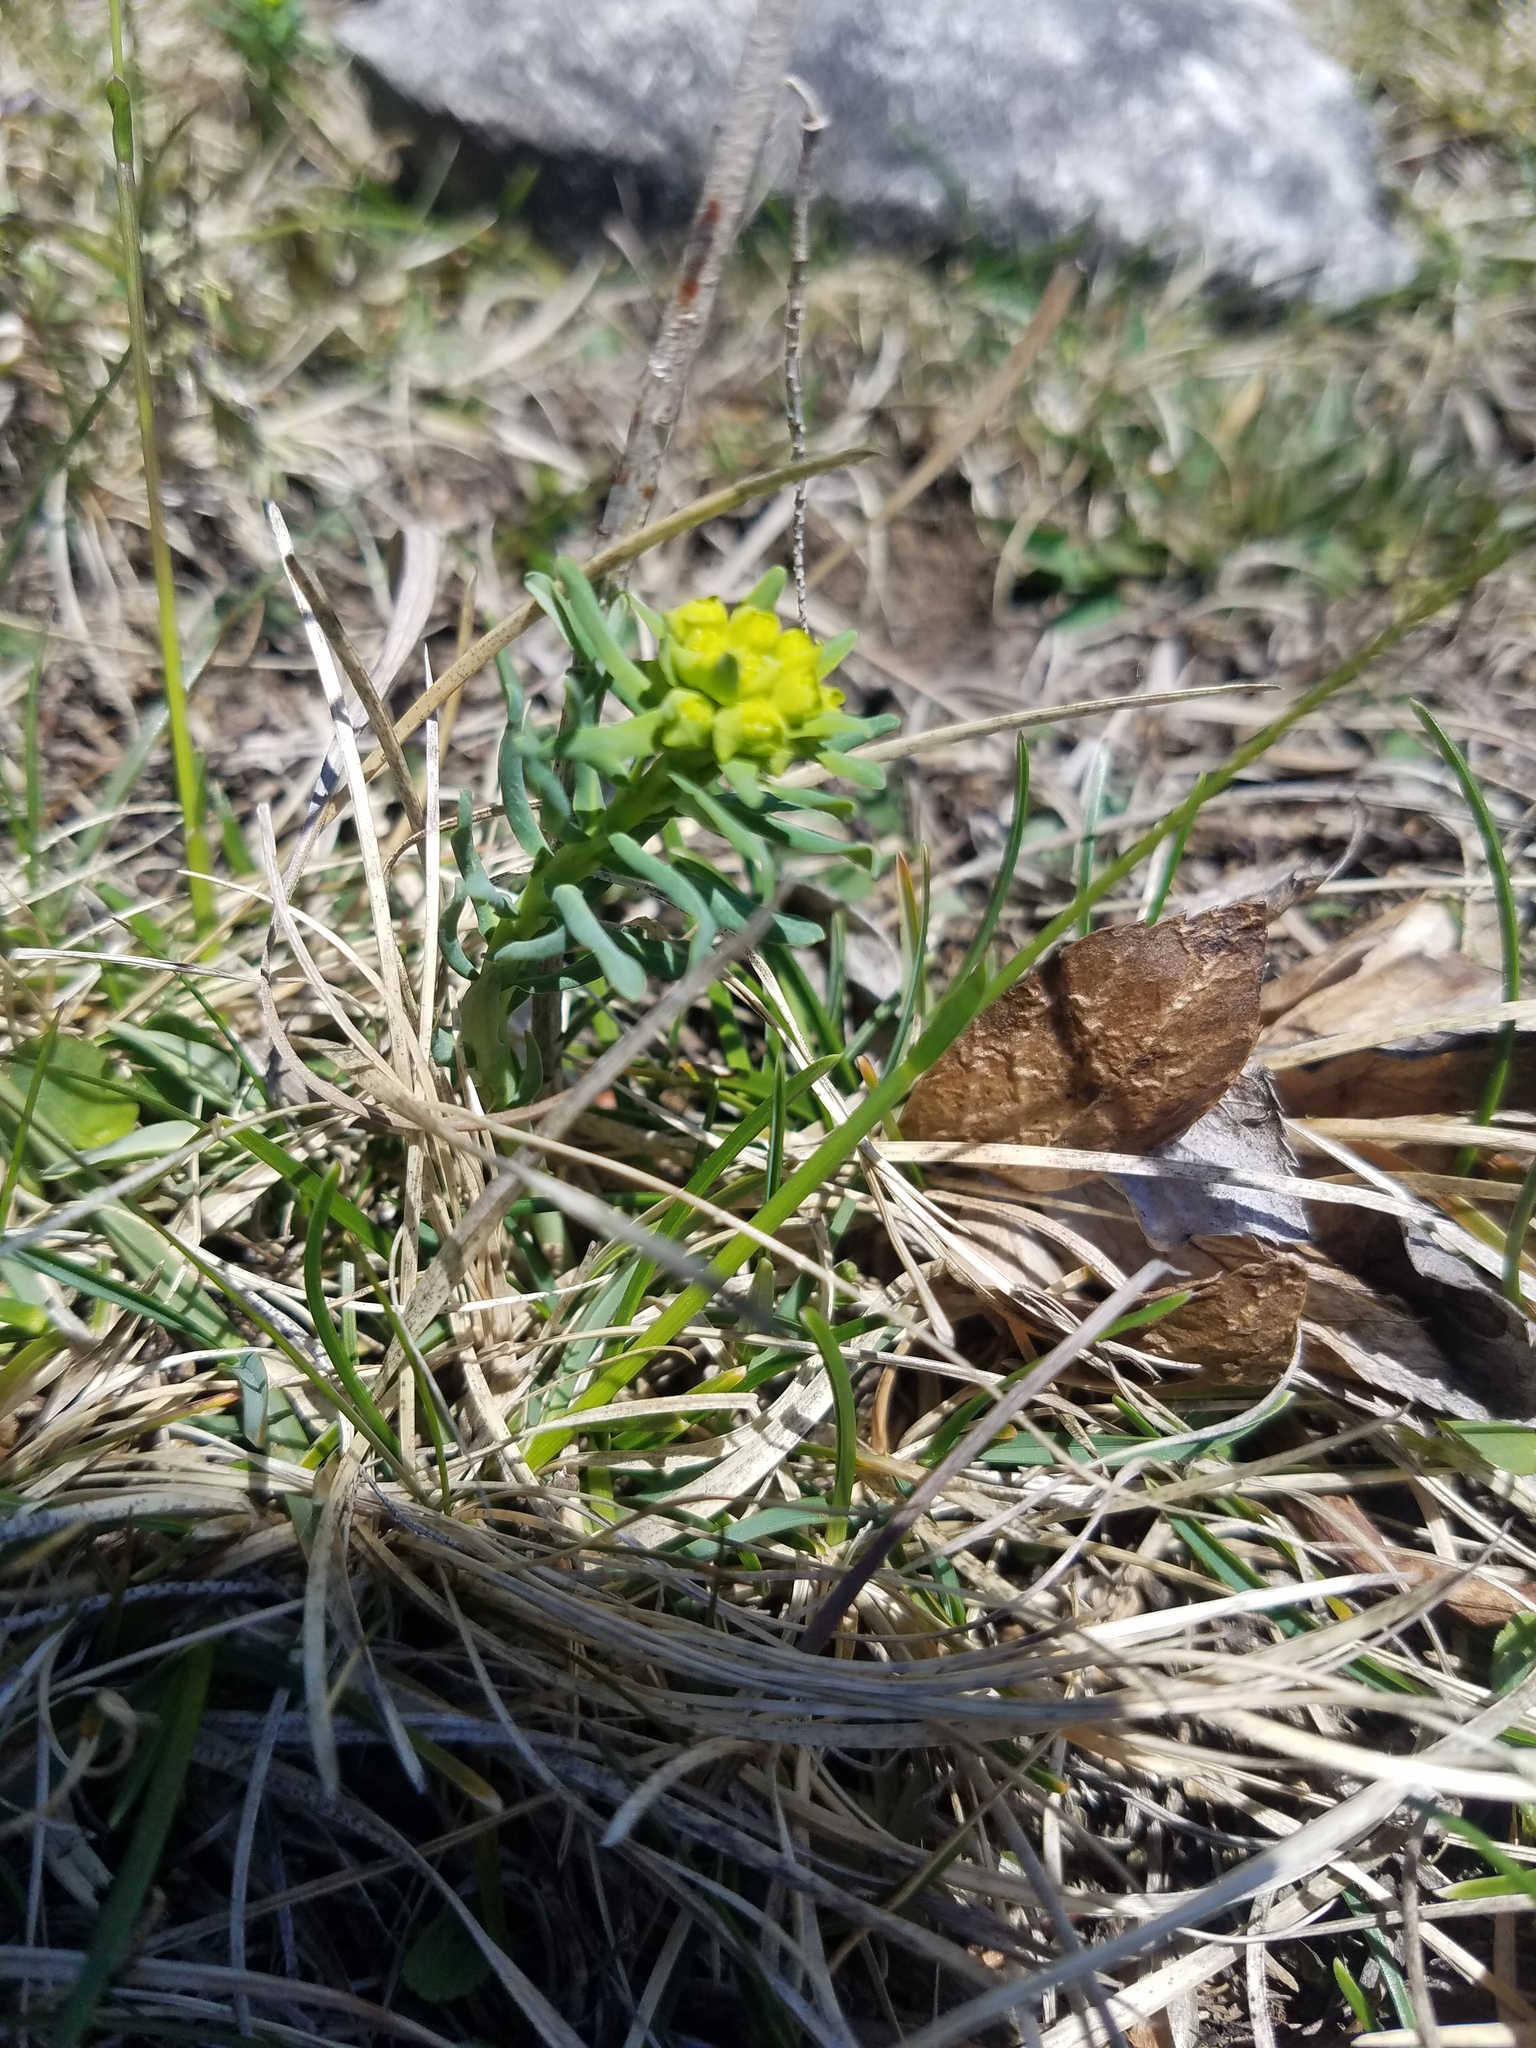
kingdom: Plantae
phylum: Tracheophyta
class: Magnoliopsida
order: Malpighiales
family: Euphorbiaceae
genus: Euphorbia
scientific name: Euphorbia cyparissias
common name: Cypress spurge
